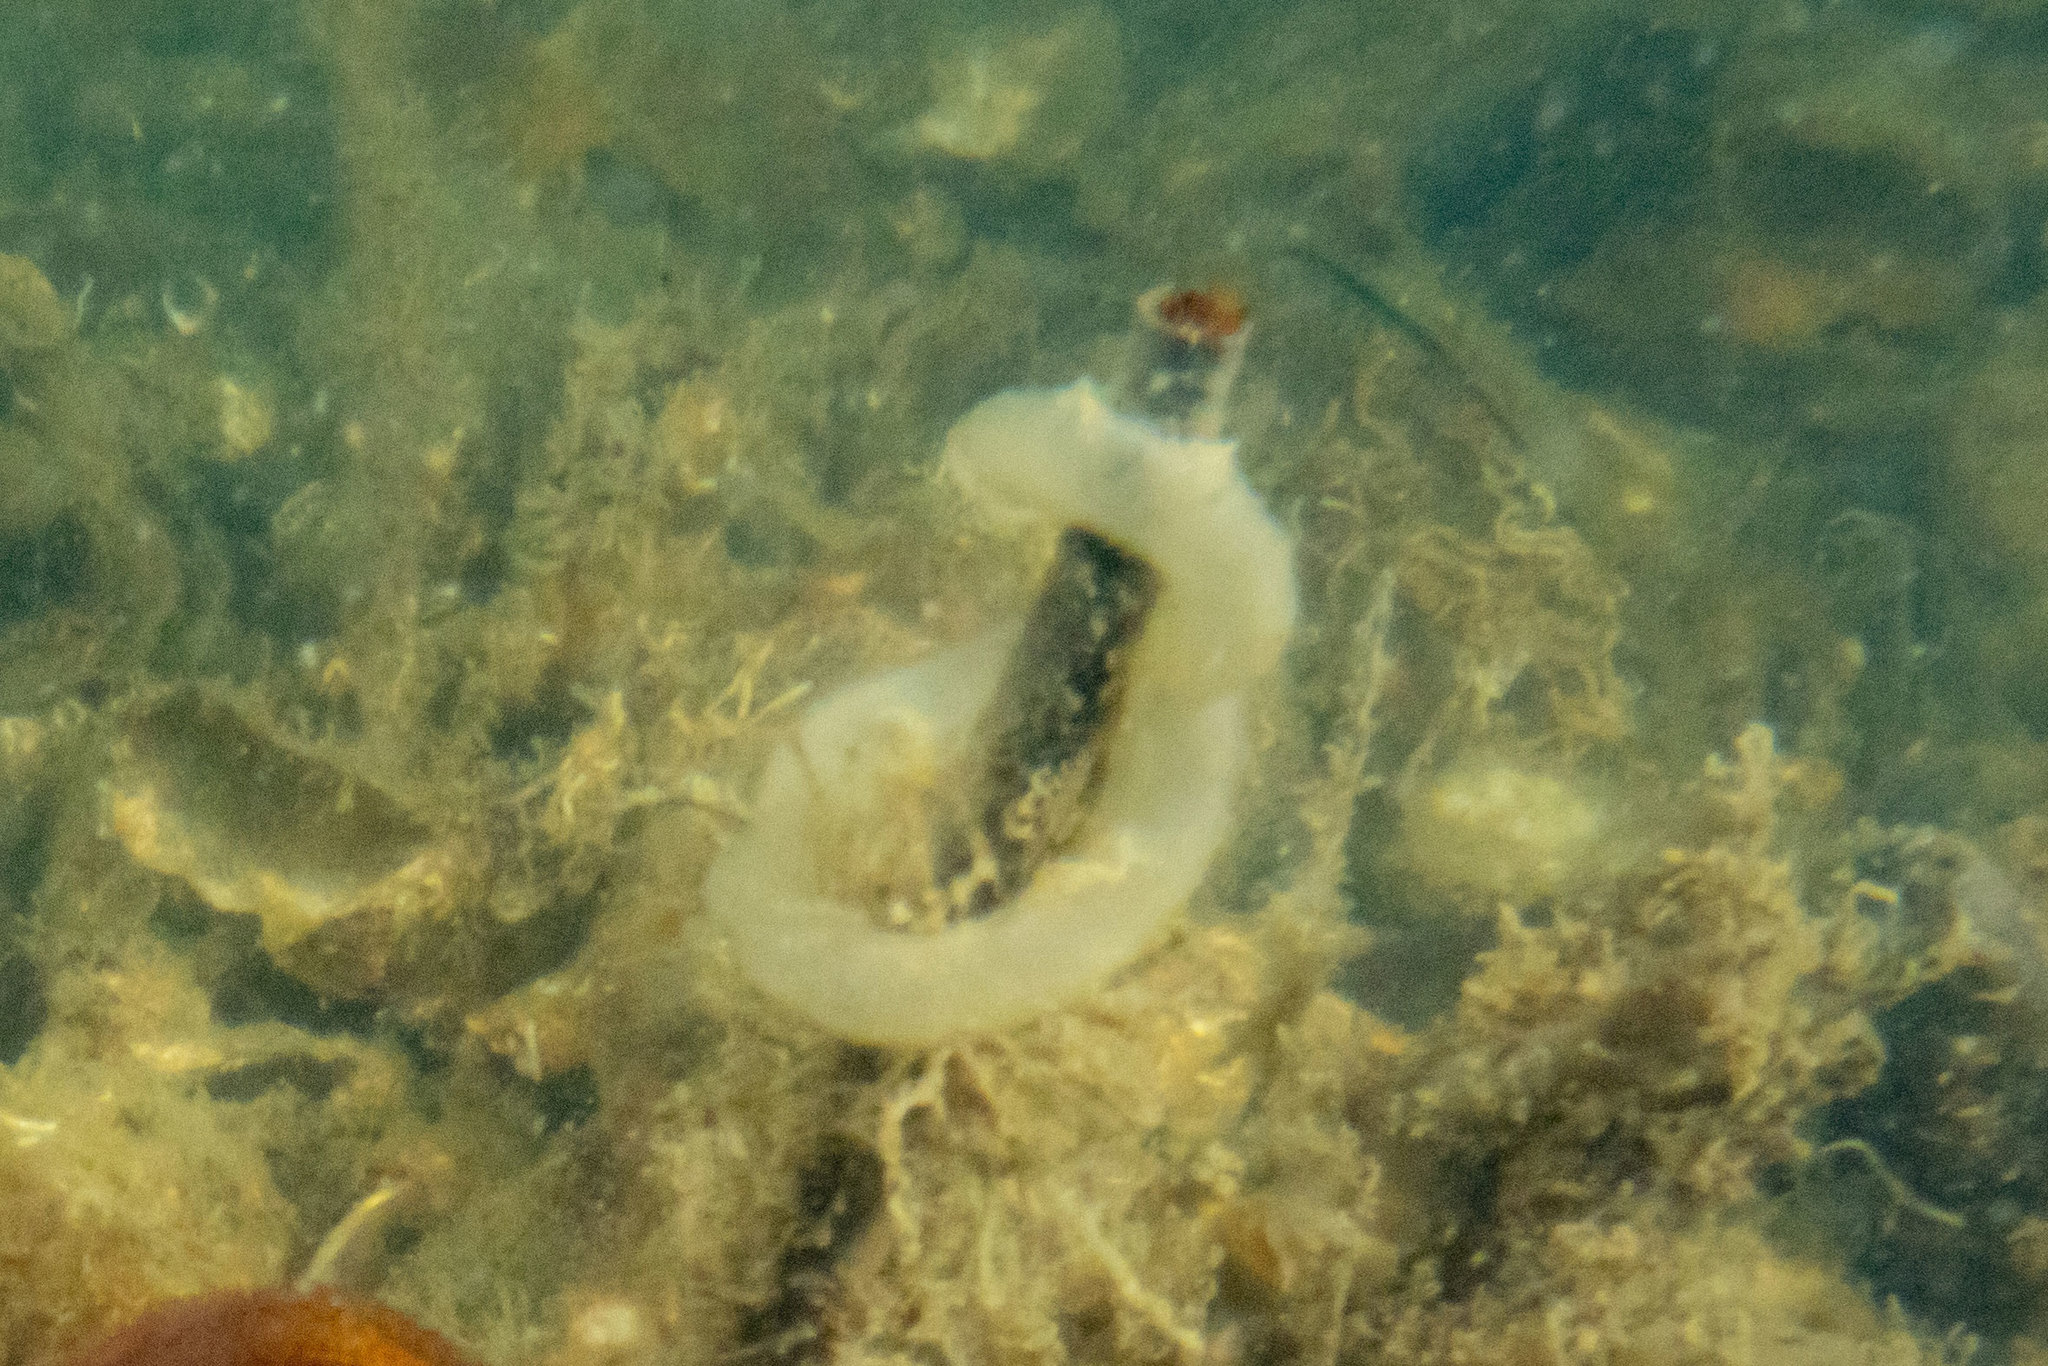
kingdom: Animalia
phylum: Mollusca
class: Gastropoda
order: Pleurobranchida
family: Pleurobranchaeidae
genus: Pleurobranchaea
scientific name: Pleurobranchaea maculata
